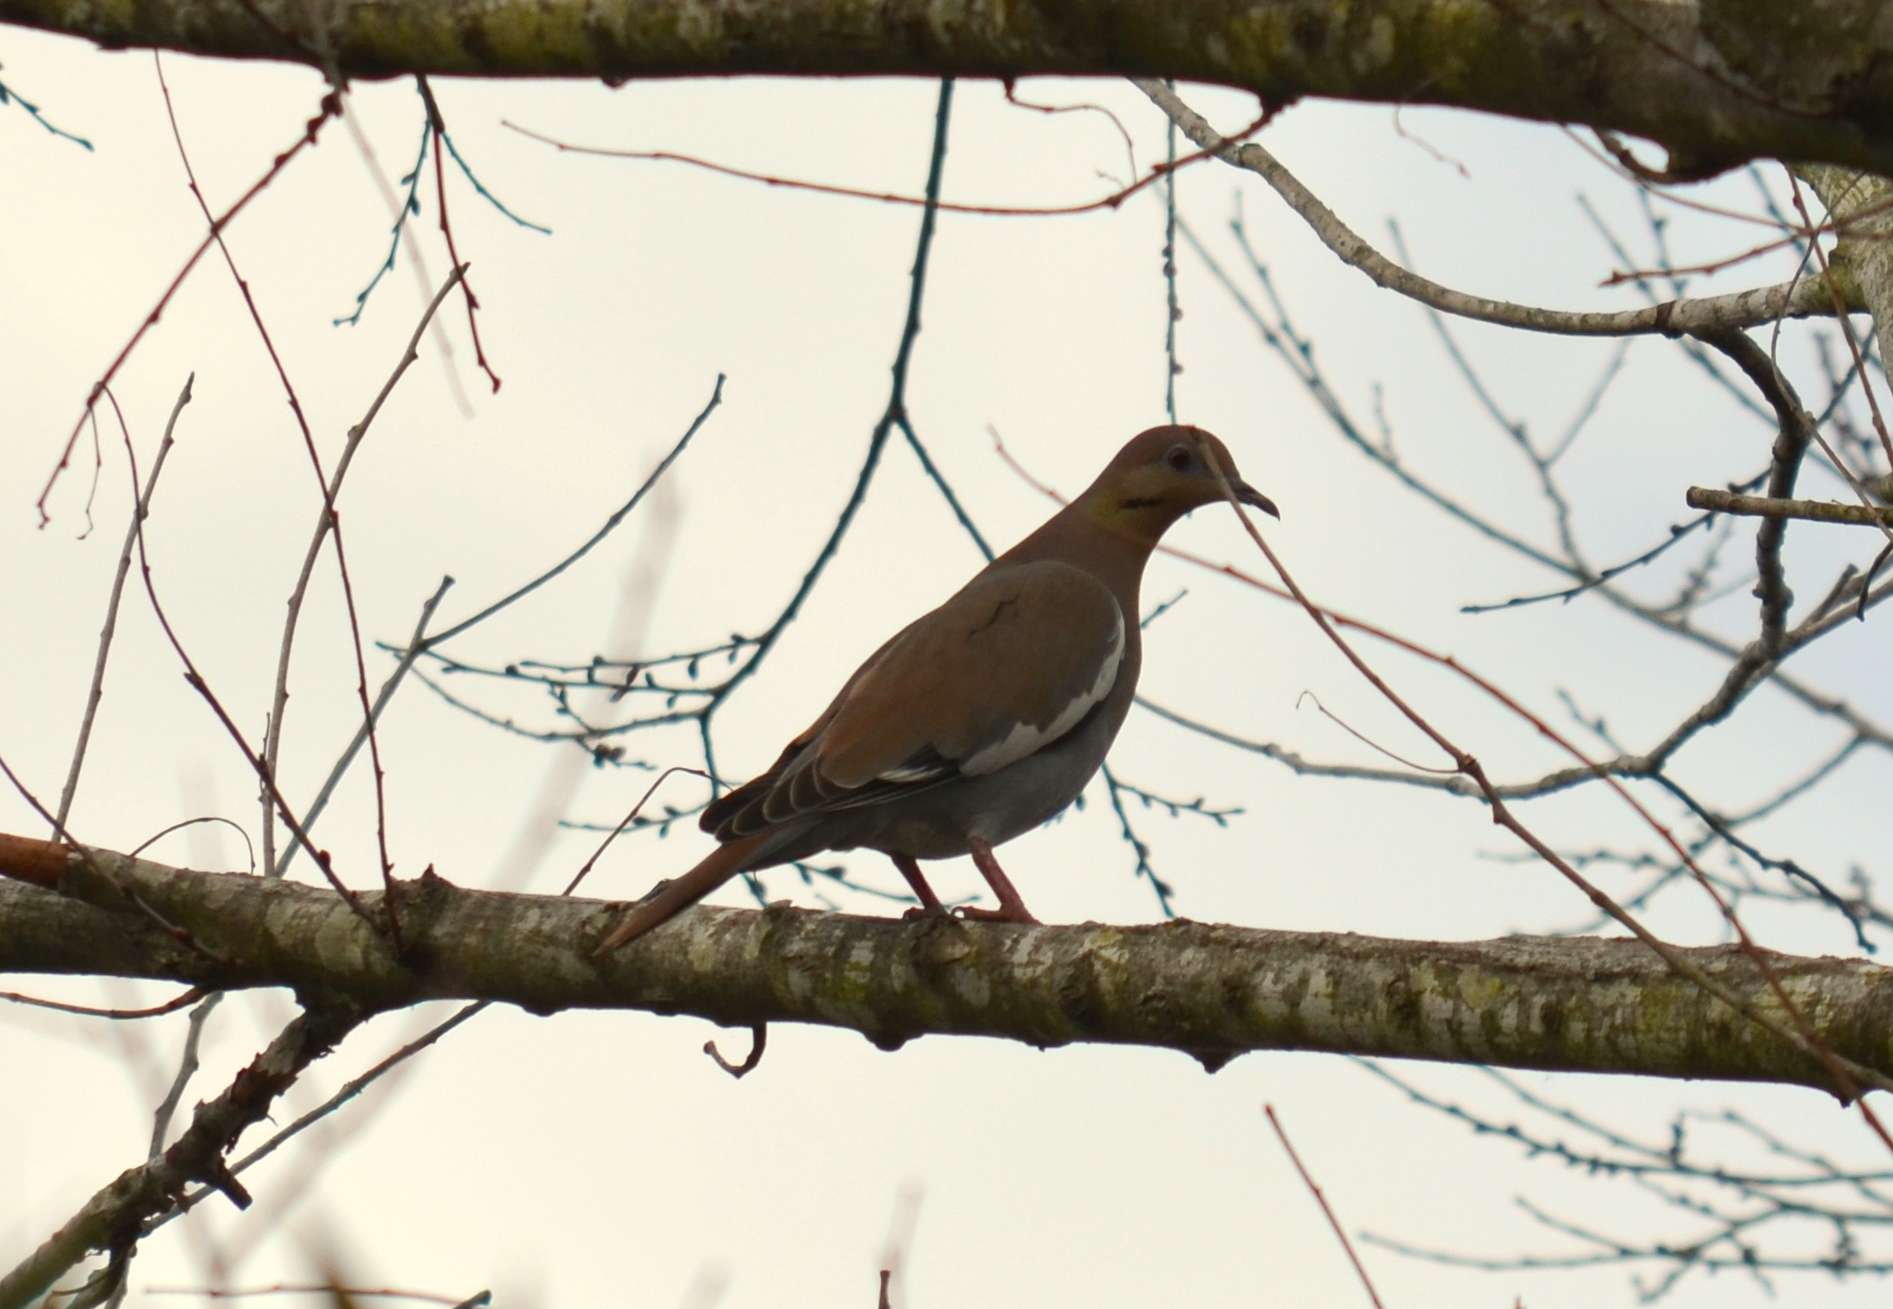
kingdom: Animalia
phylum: Chordata
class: Aves
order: Columbiformes
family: Columbidae
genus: Zenaida
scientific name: Zenaida asiatica
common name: White-winged dove
